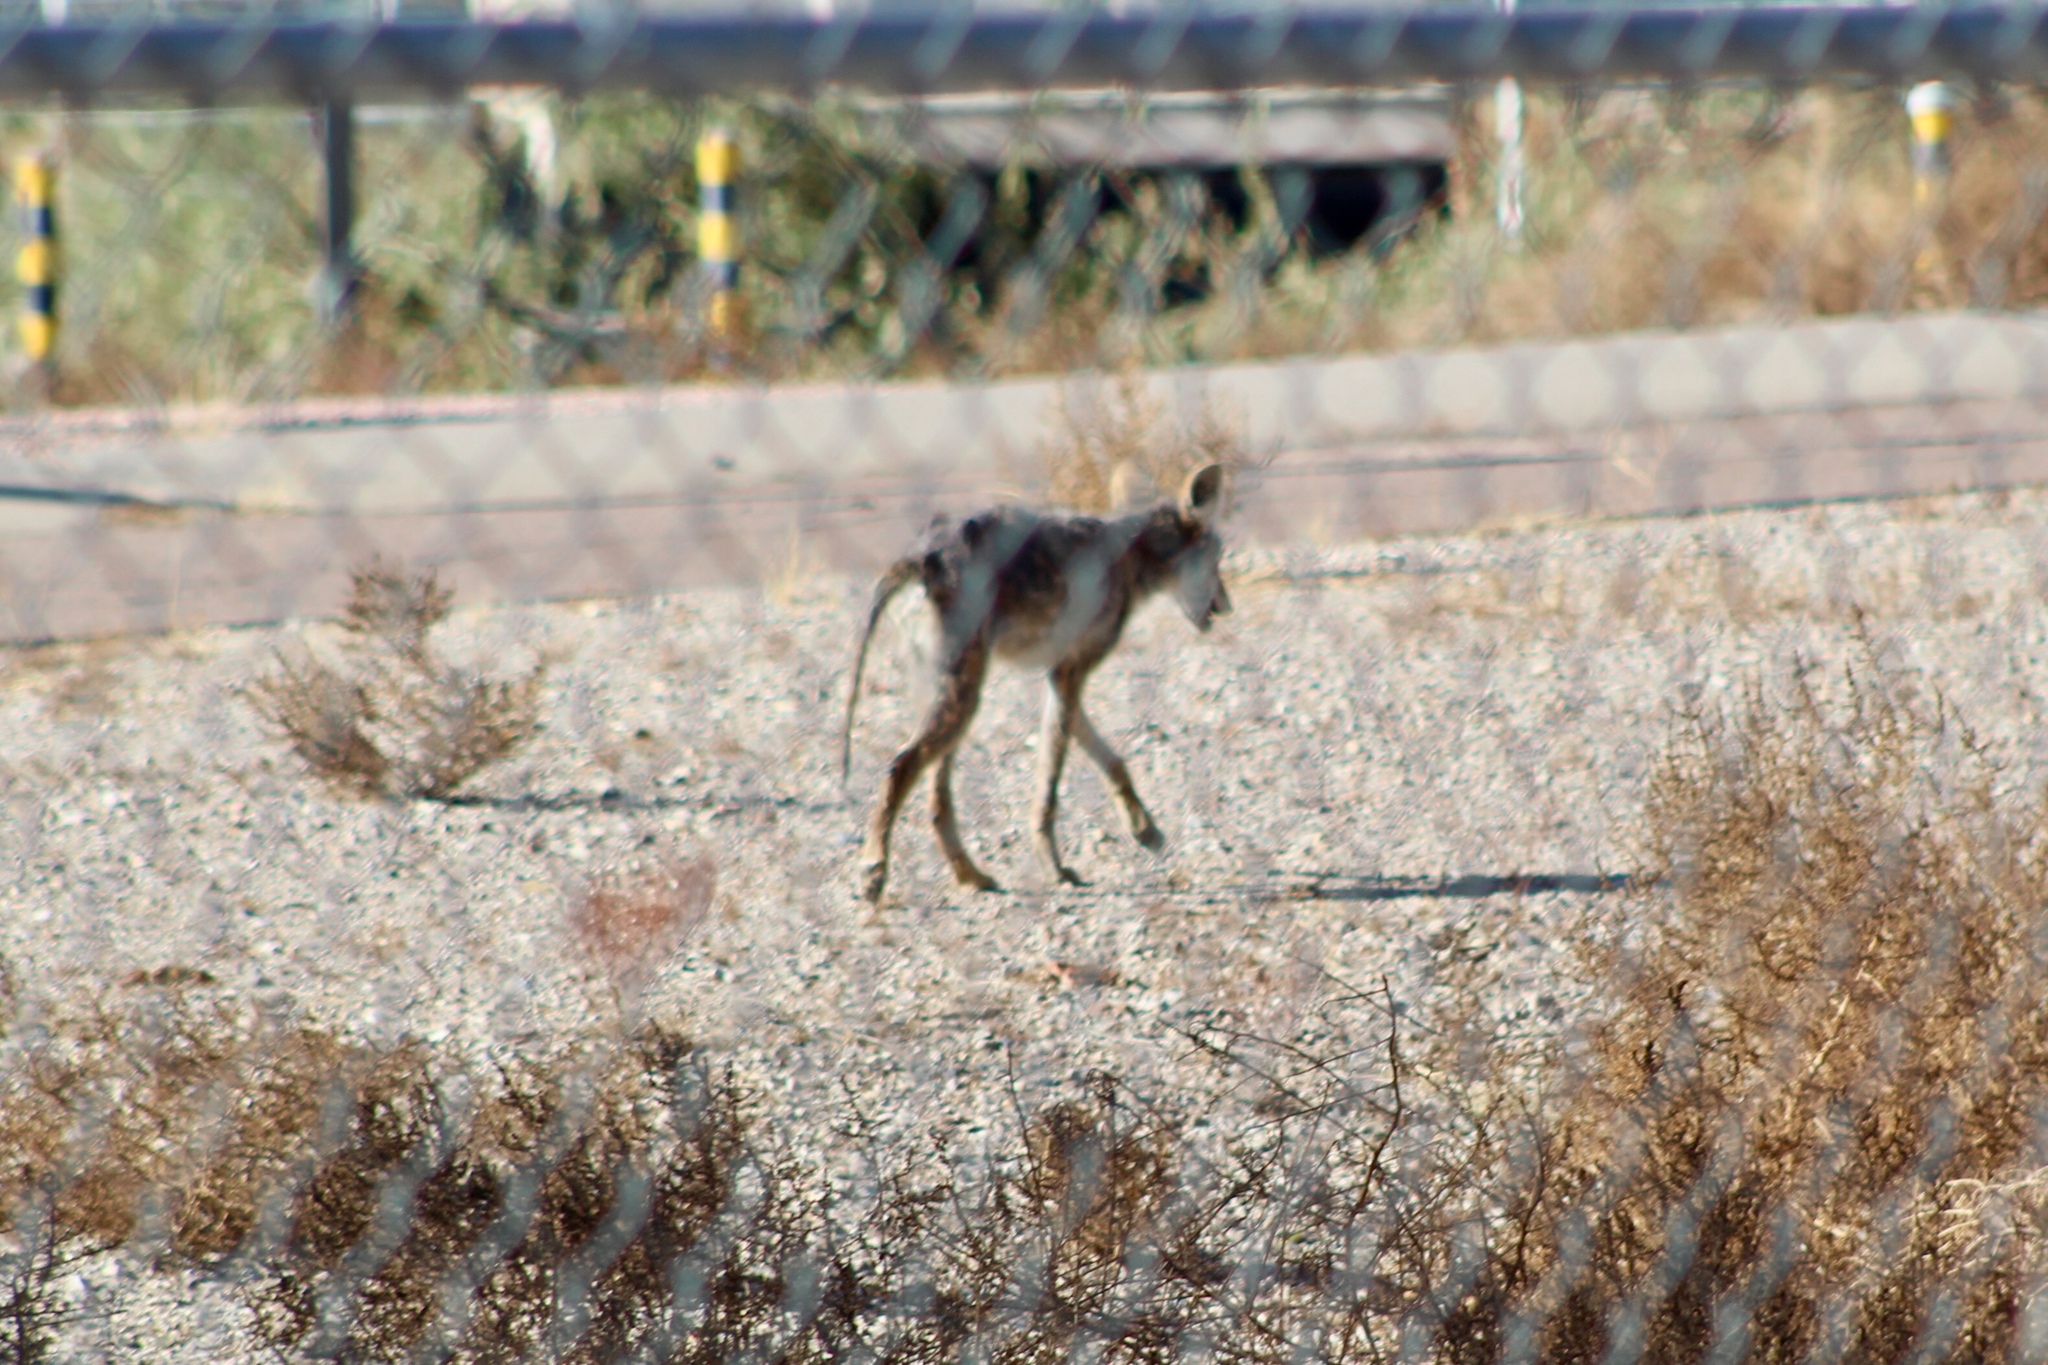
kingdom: Animalia
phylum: Chordata
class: Mammalia
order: Carnivora
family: Canidae
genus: Canis
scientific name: Canis latrans
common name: Coyote
